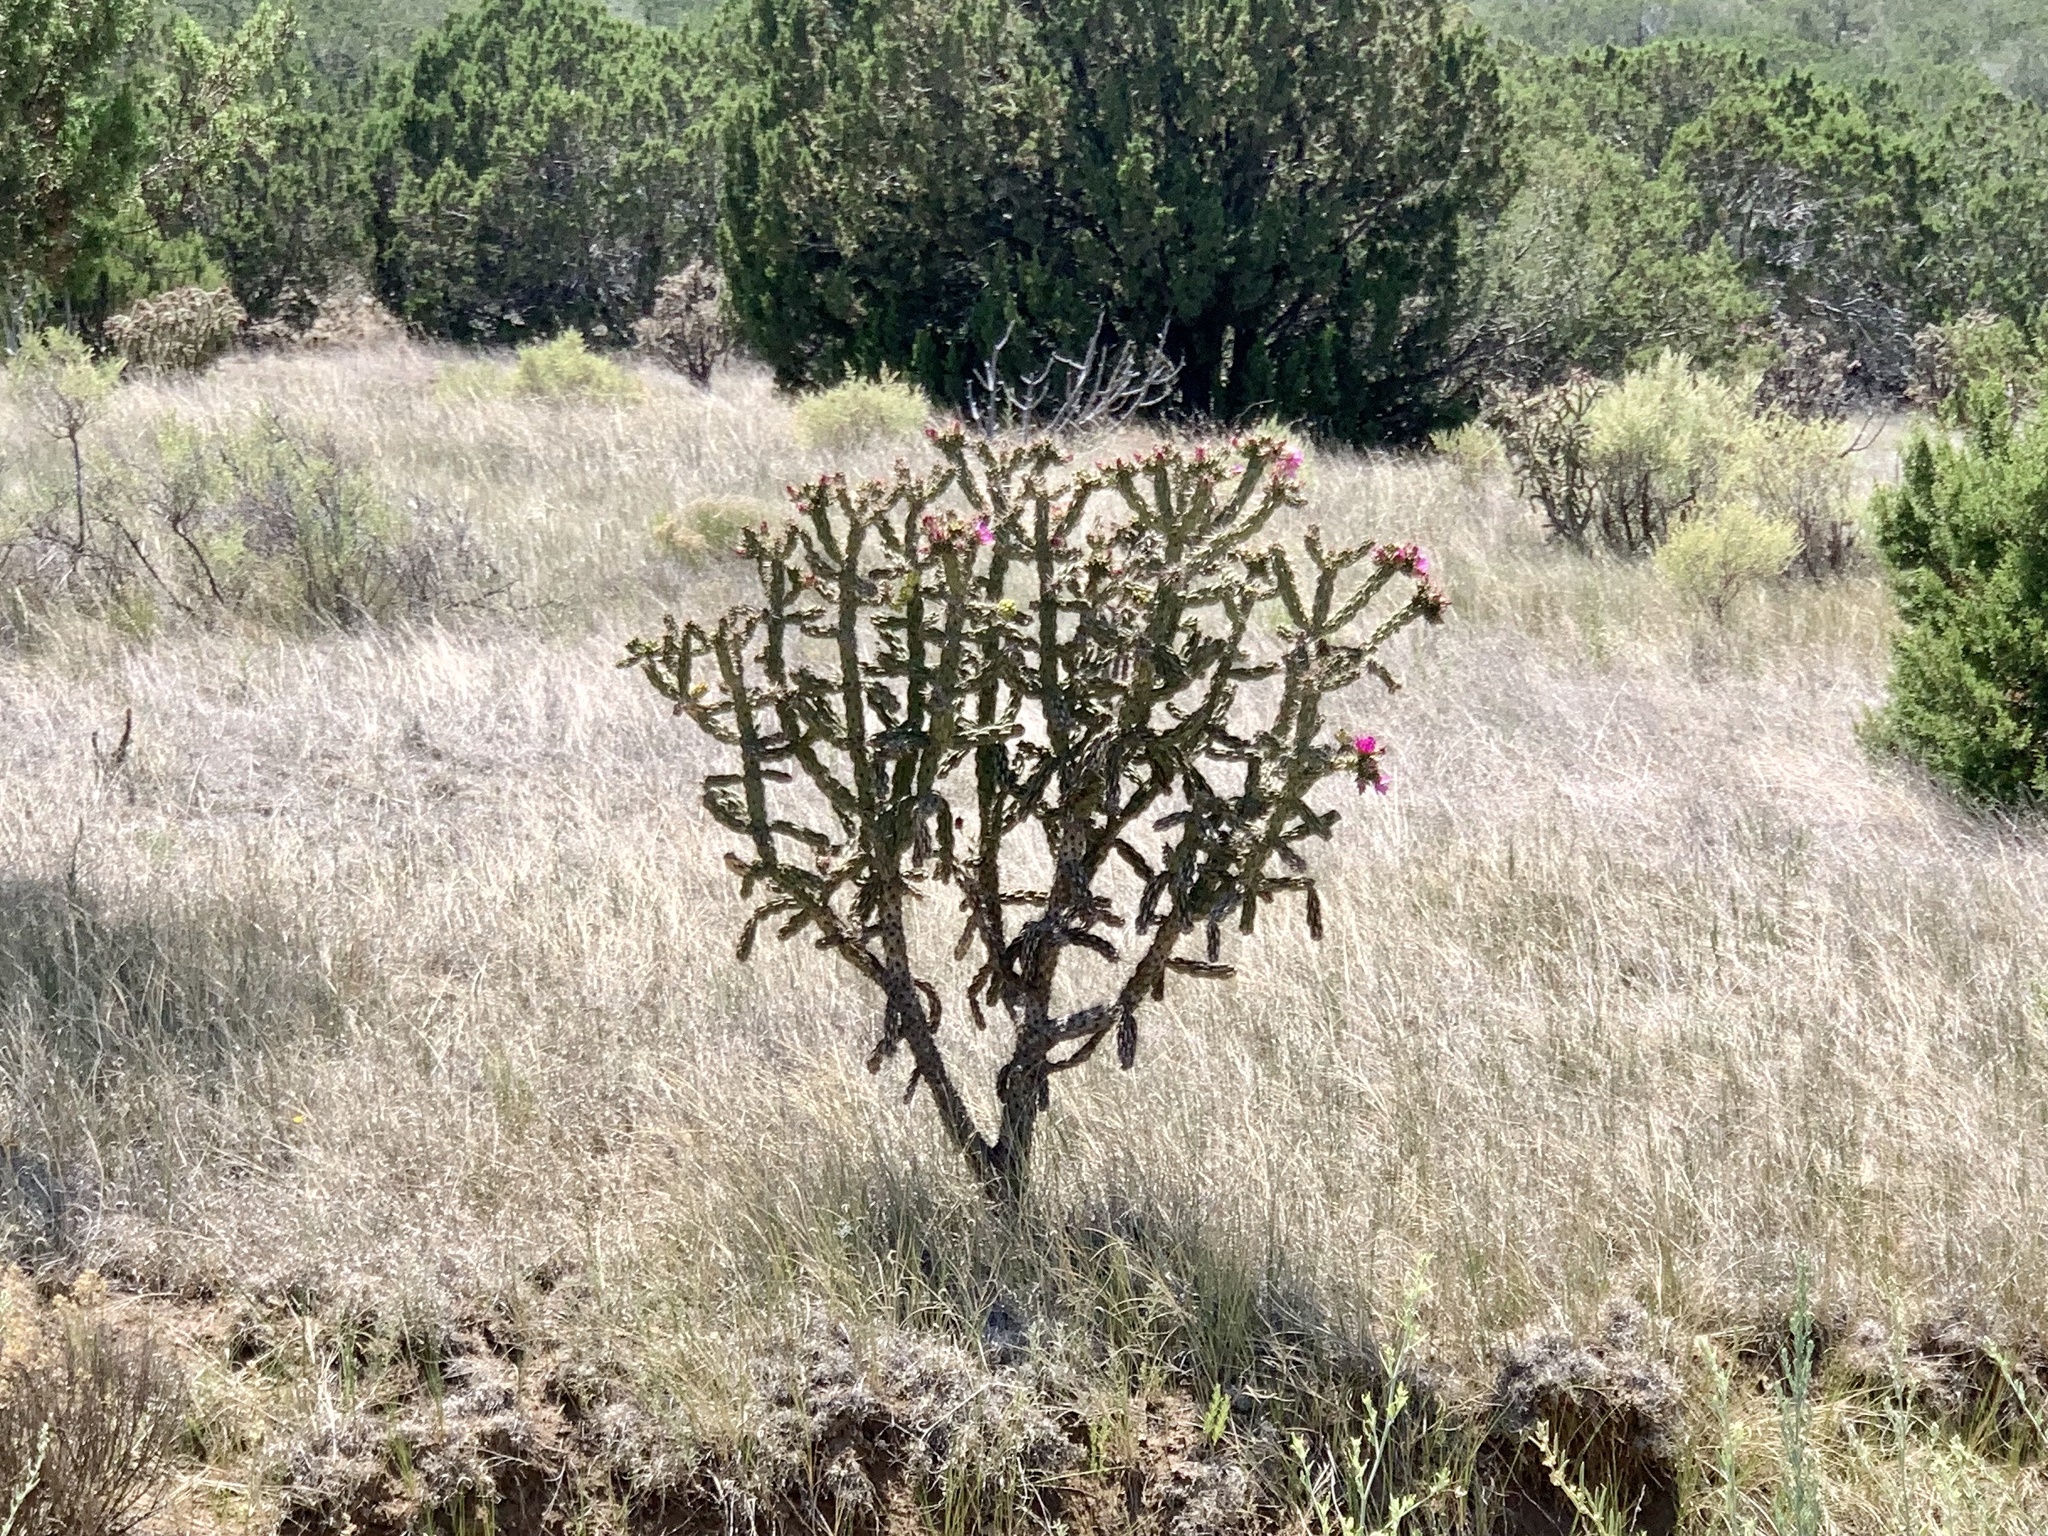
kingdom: Plantae
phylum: Tracheophyta
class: Magnoliopsida
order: Caryophyllales
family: Cactaceae
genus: Cylindropuntia
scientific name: Cylindropuntia imbricata
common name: Candelabrum cactus
